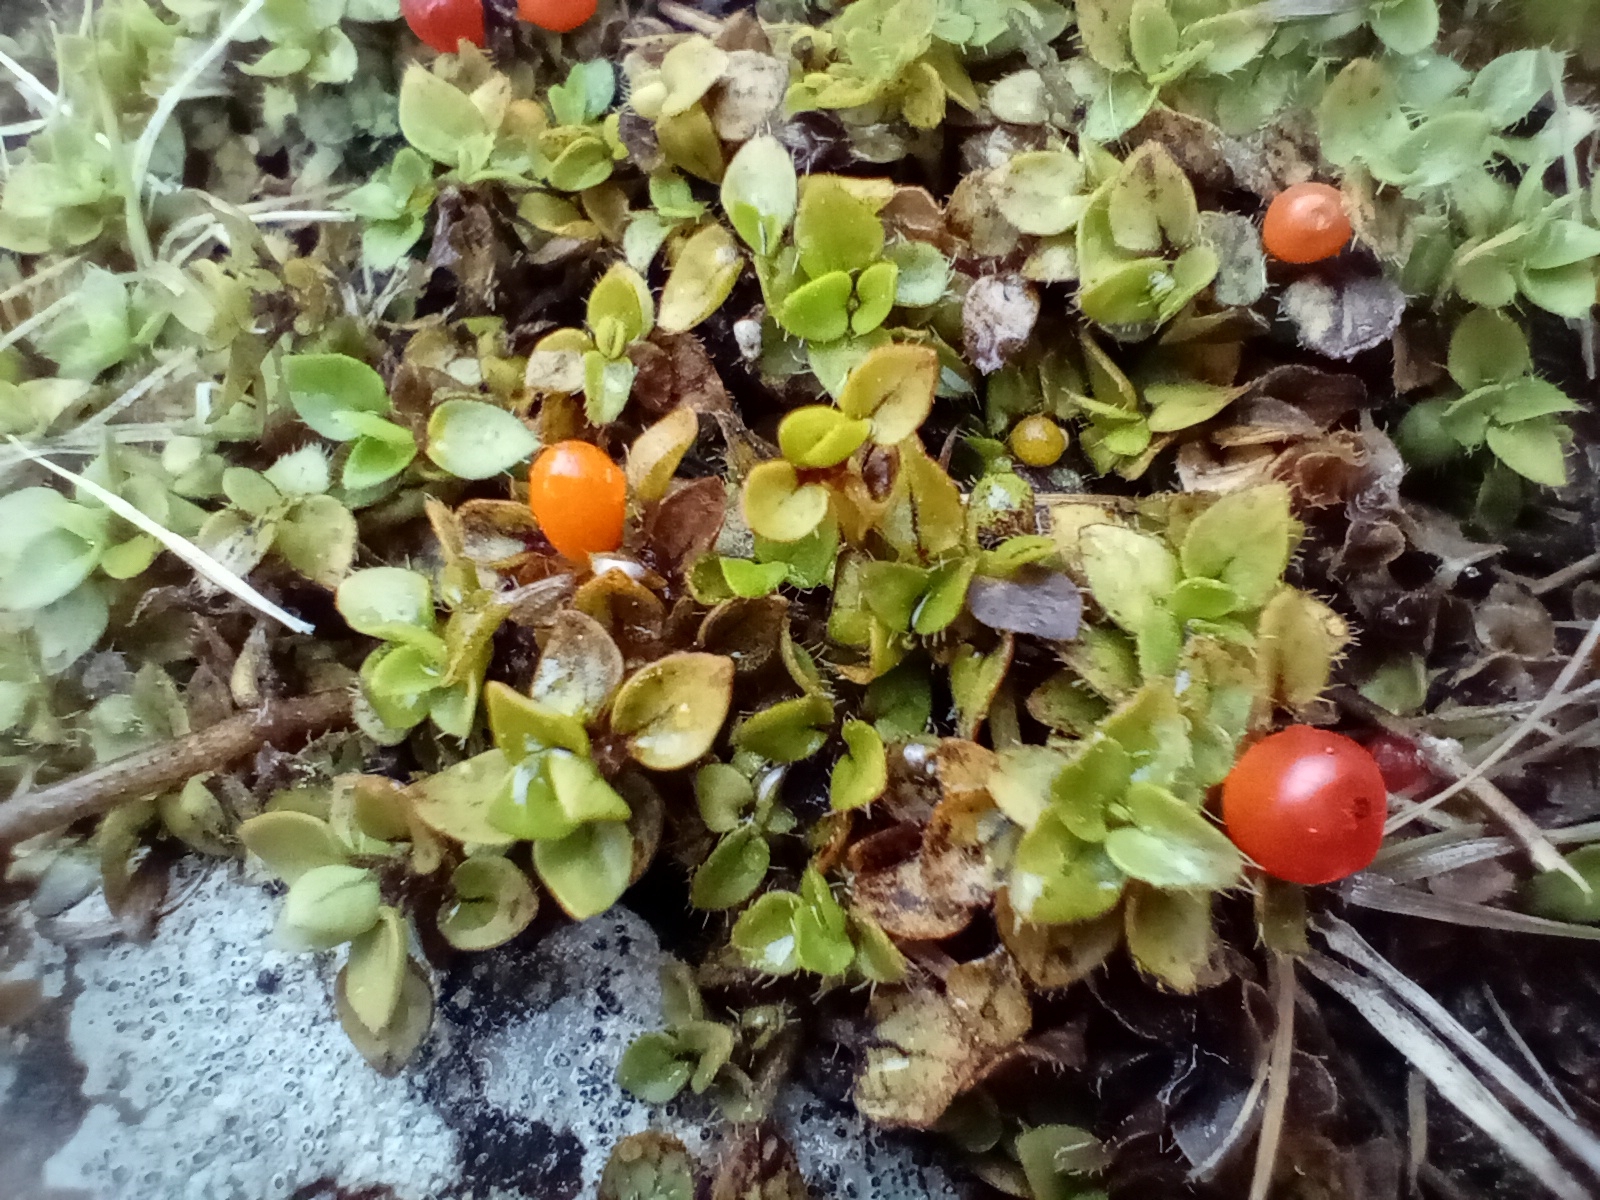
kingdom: Plantae
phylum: Tracheophyta
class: Magnoliopsida
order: Gentianales
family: Rubiaceae
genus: Nertera
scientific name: Nertera ciliata
